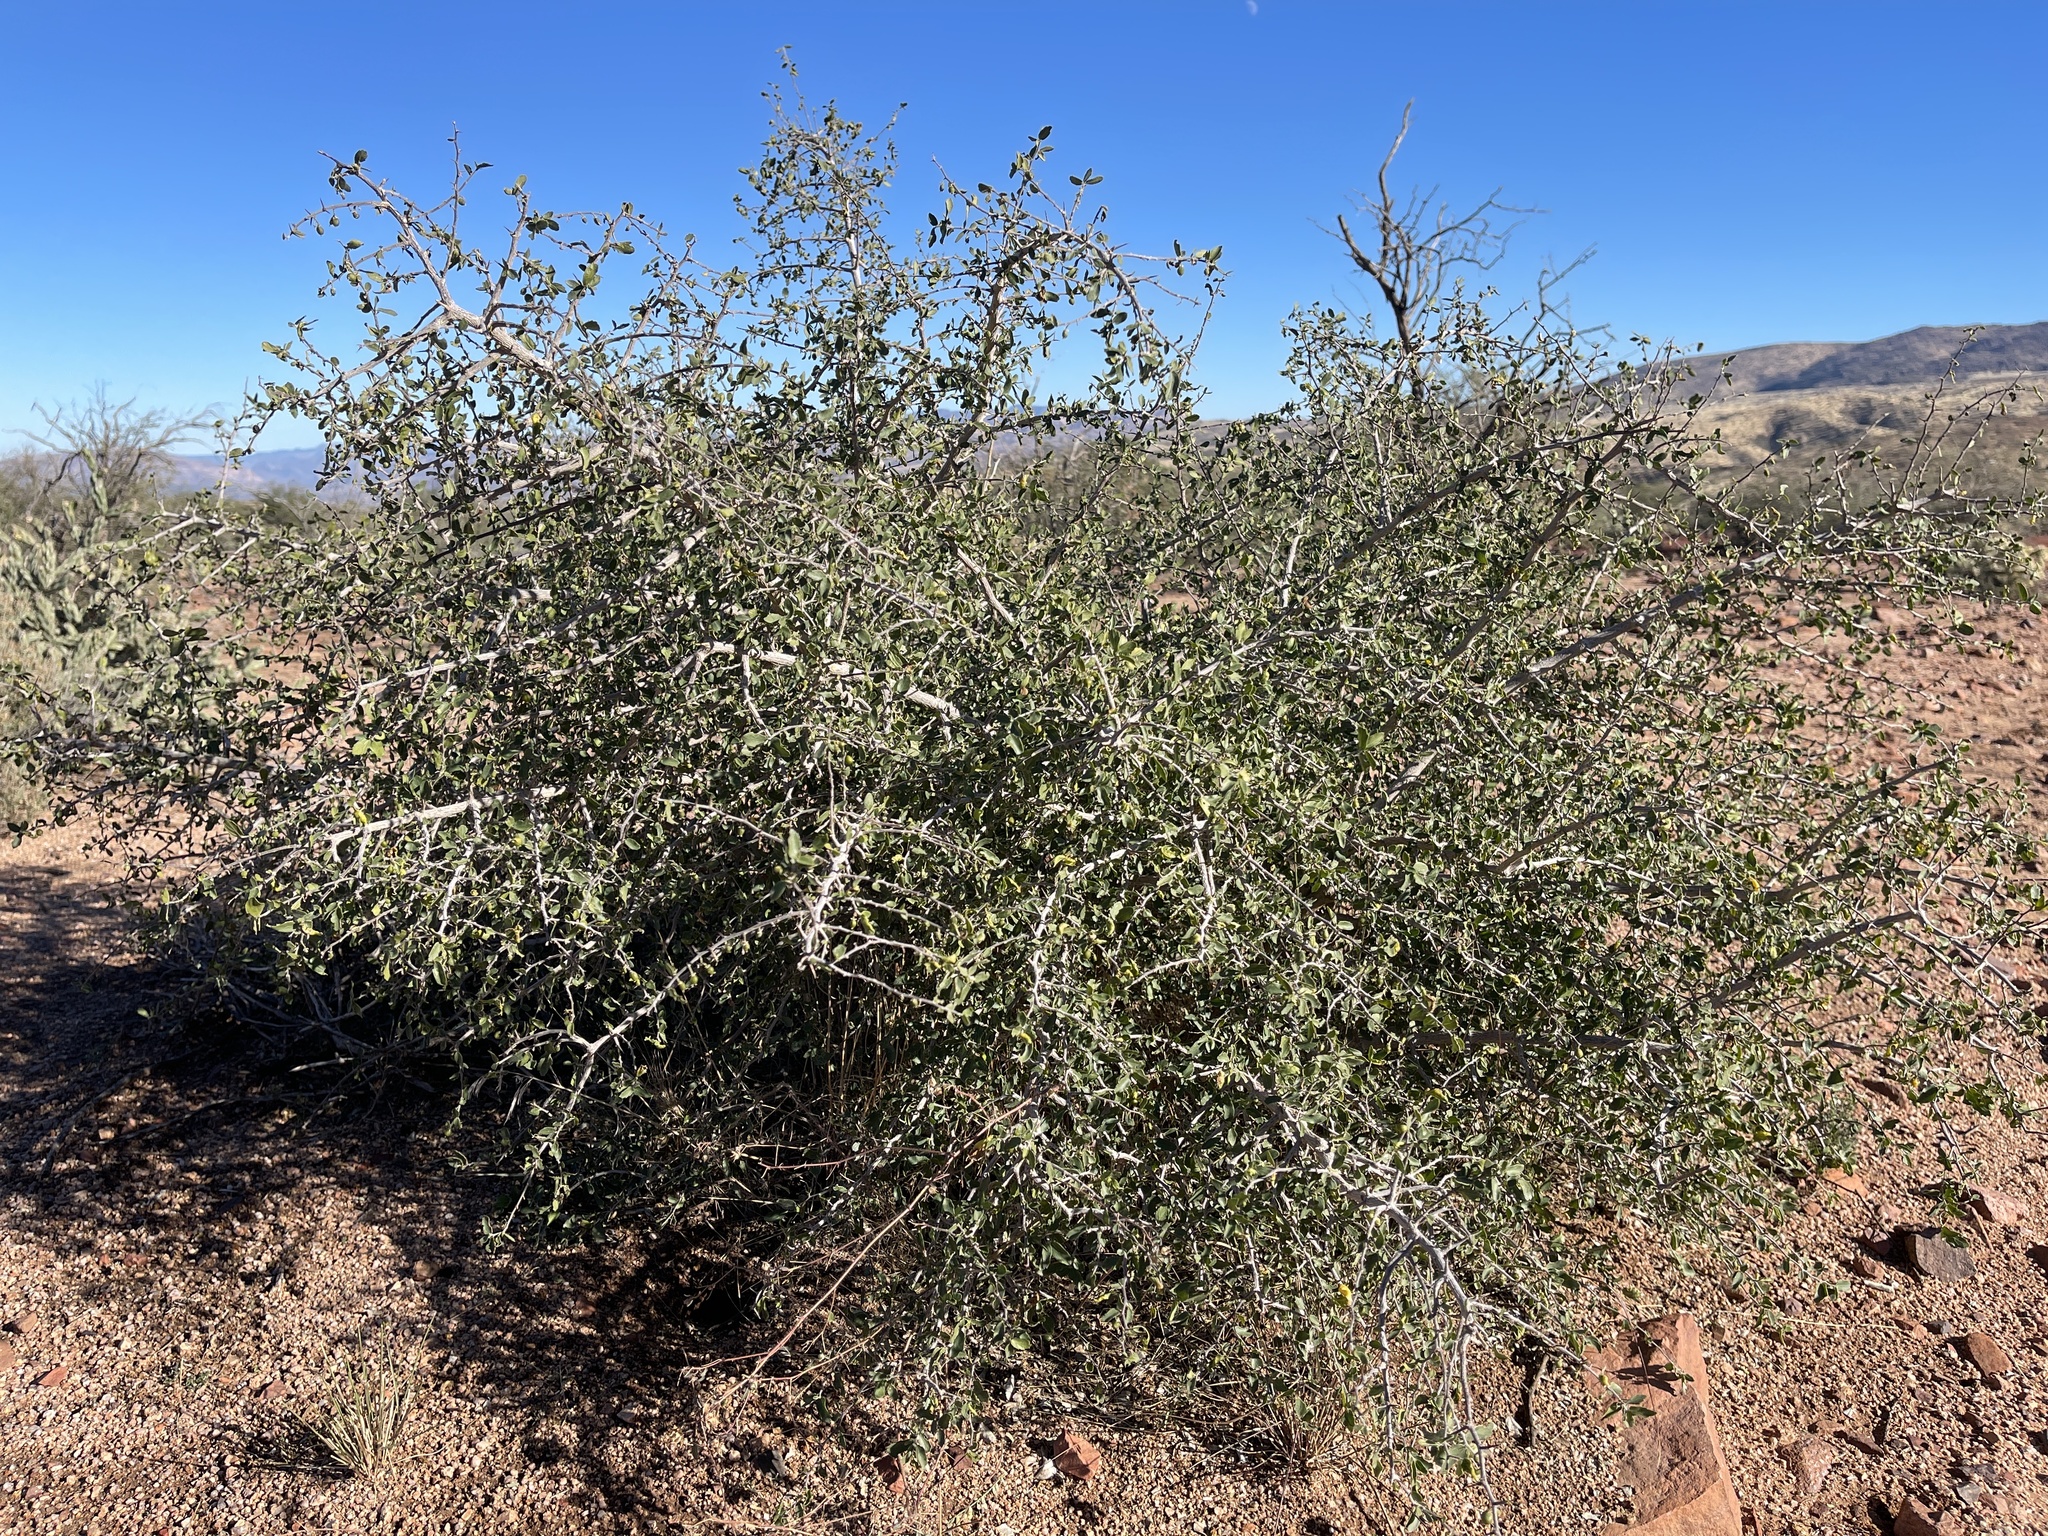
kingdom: Plantae
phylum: Tracheophyta
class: Magnoliopsida
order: Rosales
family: Cannabaceae
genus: Celtis
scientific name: Celtis pallida
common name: Desert hackberry
